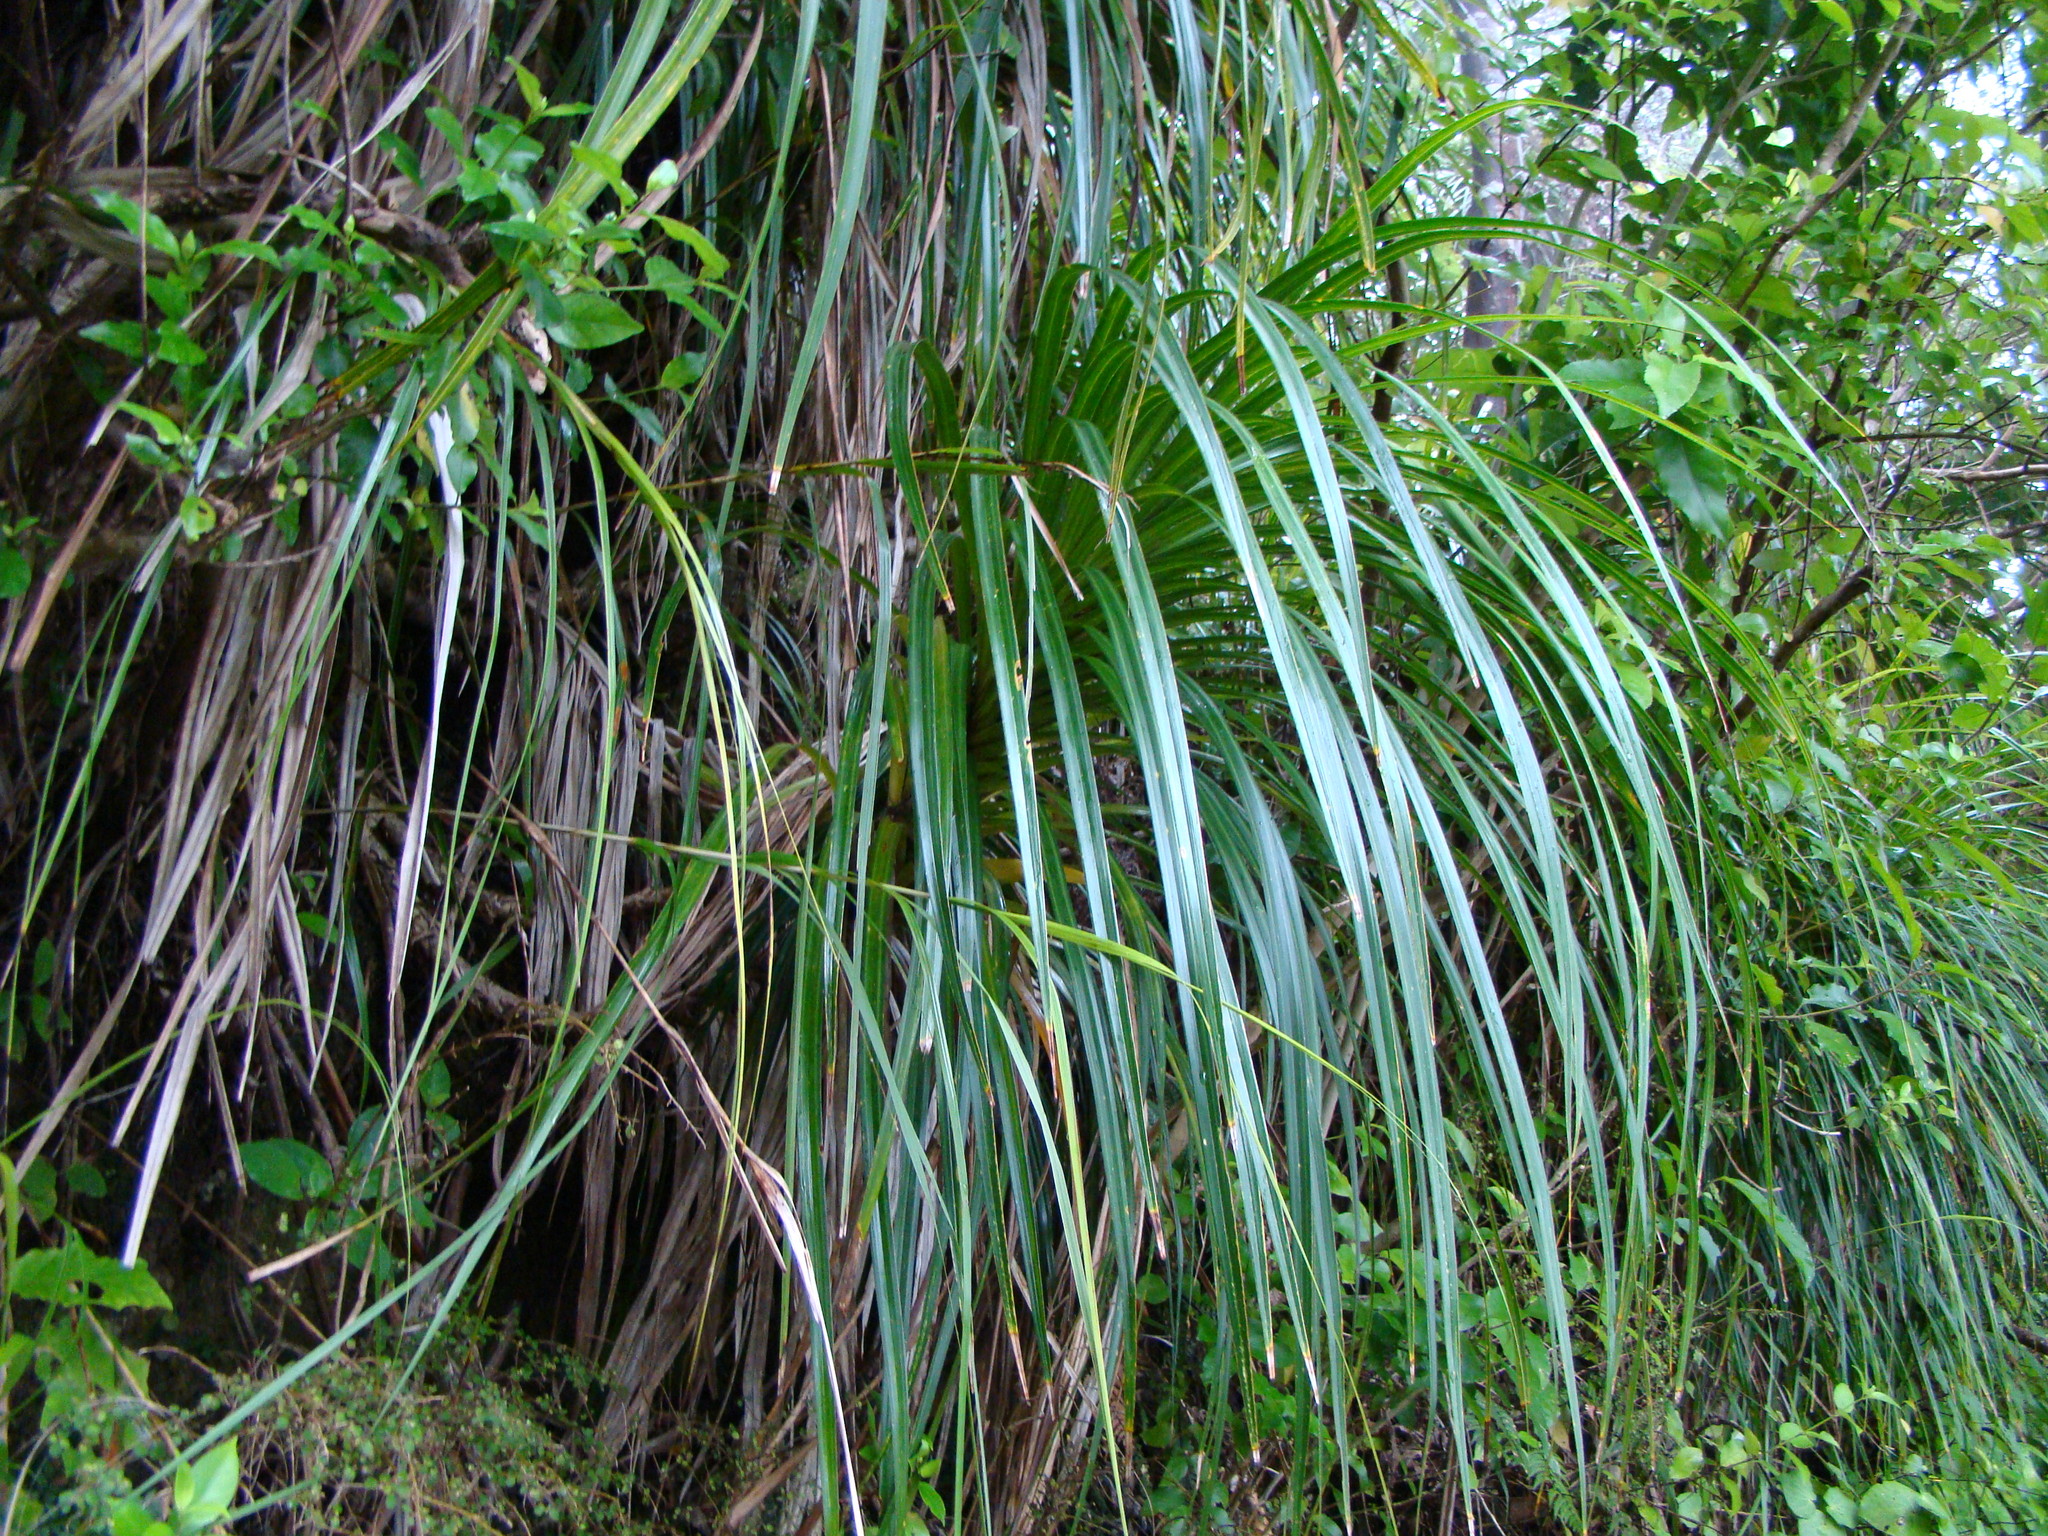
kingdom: Plantae
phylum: Tracheophyta
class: Liliopsida
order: Pandanales
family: Pandanaceae
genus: Freycinetia
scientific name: Freycinetia banksii
